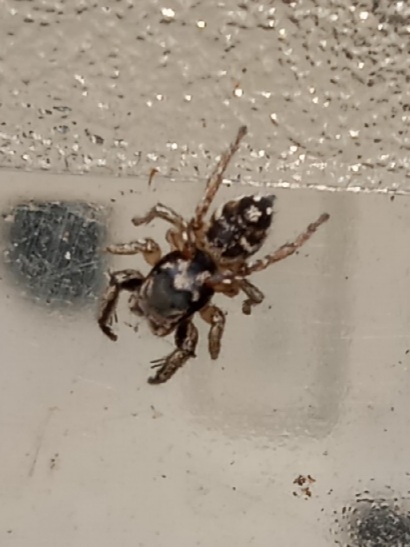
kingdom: Animalia
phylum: Arthropoda
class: Arachnida
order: Araneae
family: Salticidae
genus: Habronattus
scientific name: Habronattus coecatus
